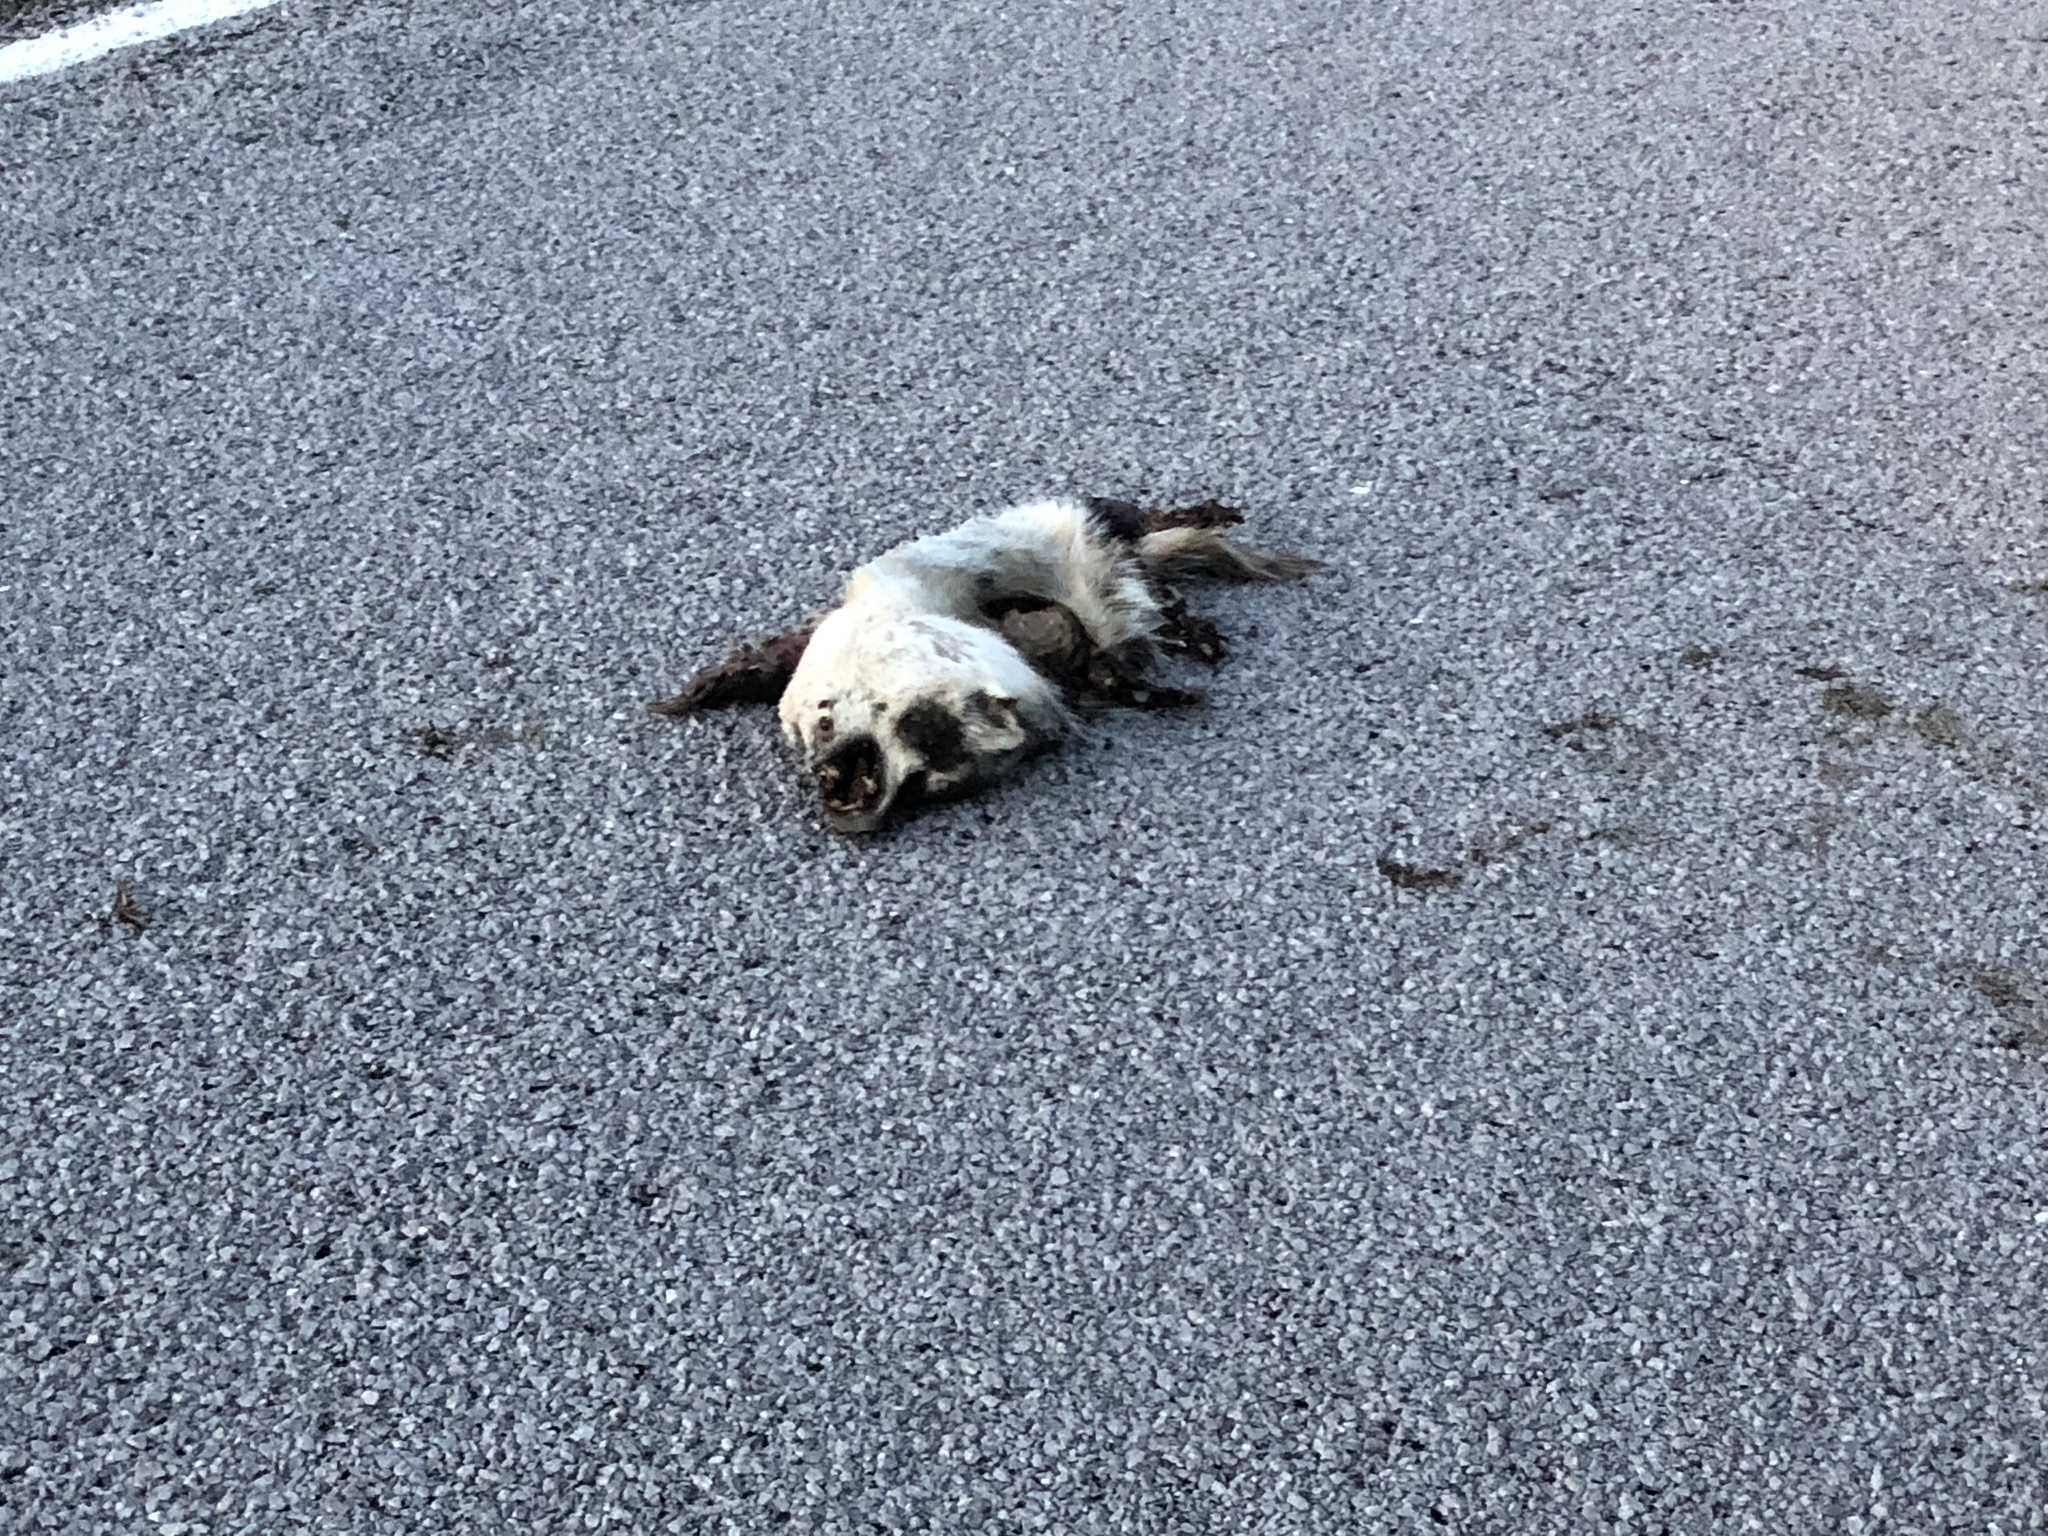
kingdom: Animalia
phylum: Chordata
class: Mammalia
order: Carnivora
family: Mustelidae
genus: Taxidea
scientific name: Taxidea taxus
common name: American badger
